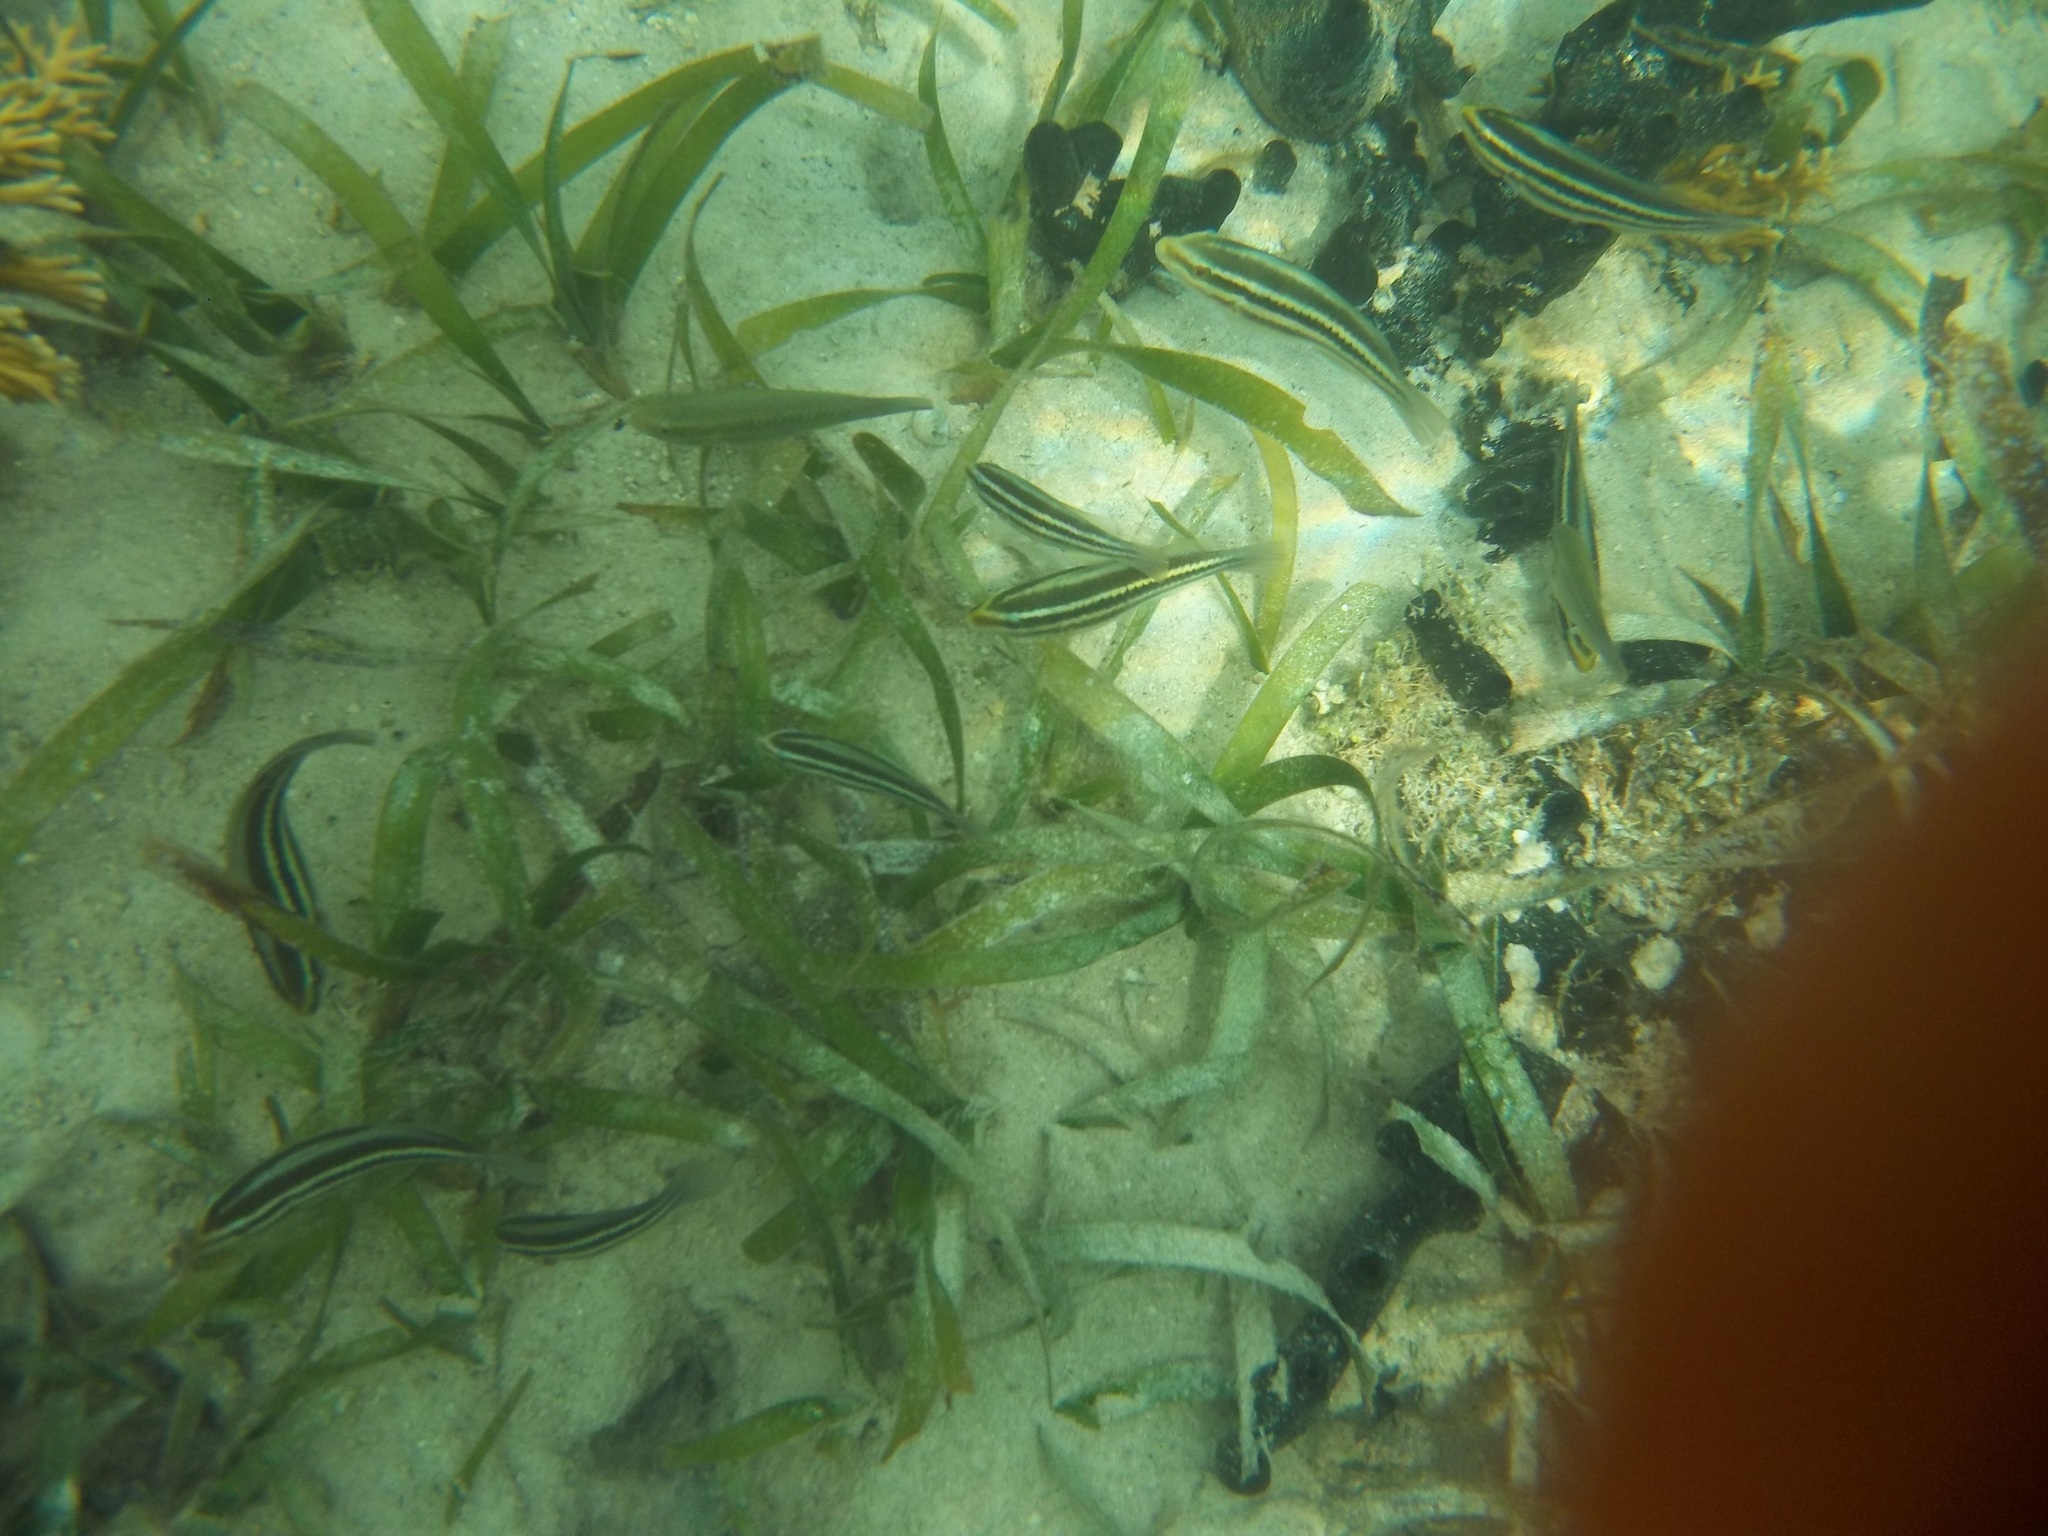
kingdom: Animalia
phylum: Chordata
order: Perciformes
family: Scaridae
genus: Scarus
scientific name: Scarus iseri
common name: Striped parrotfish
